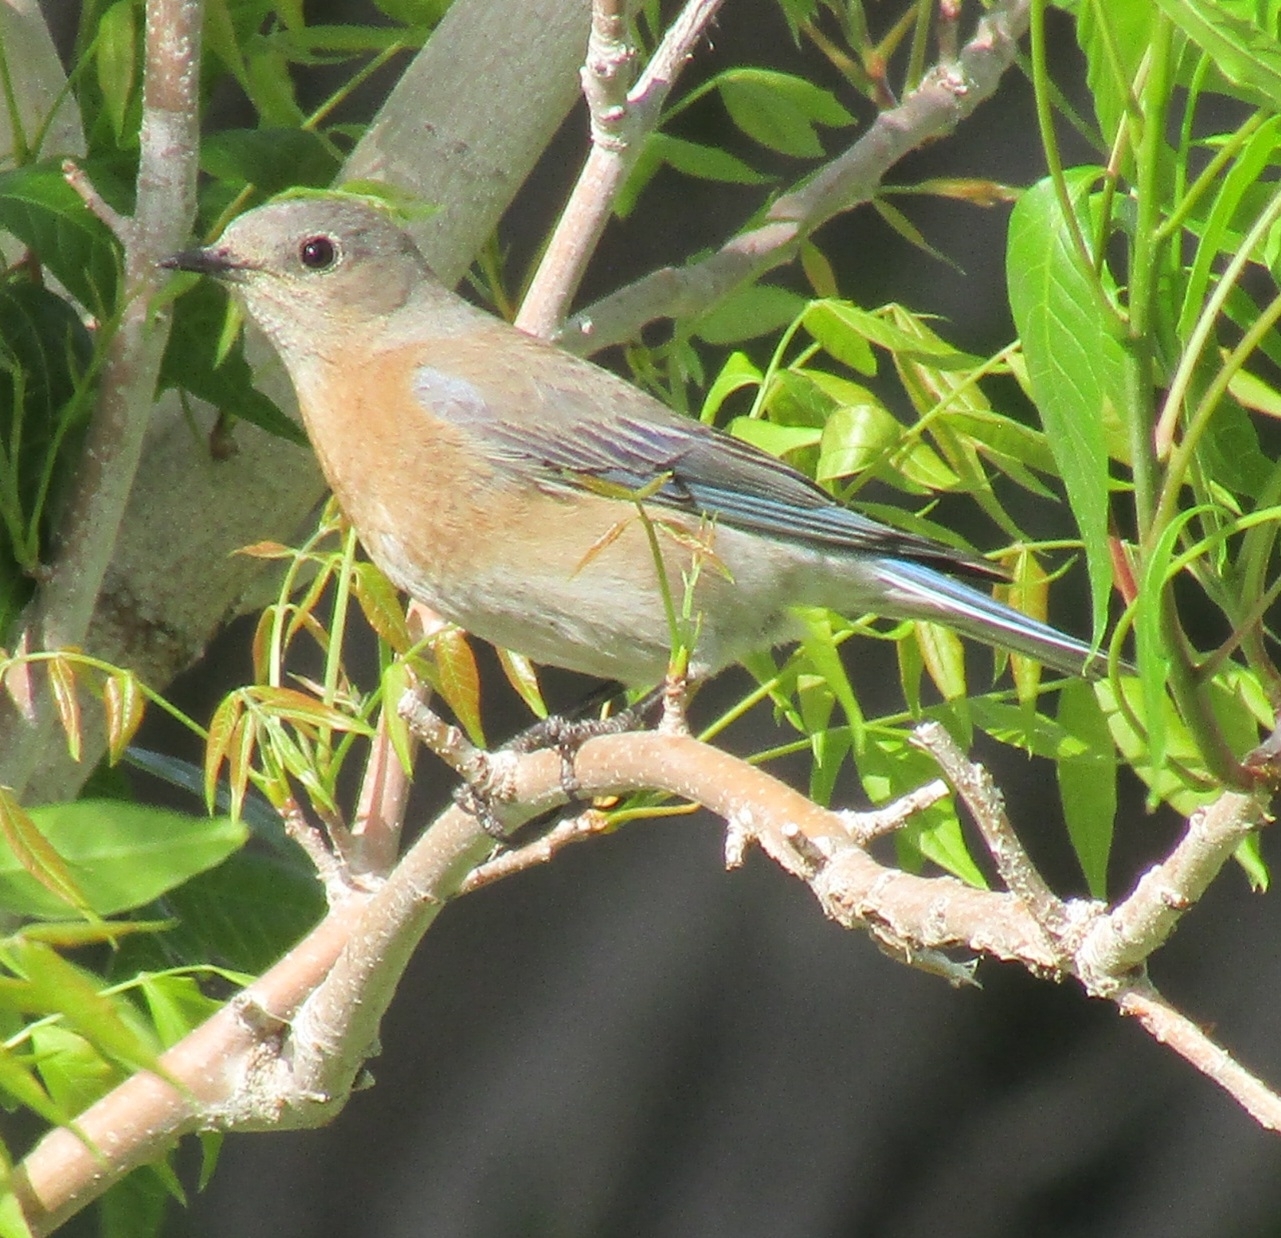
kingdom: Animalia
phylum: Chordata
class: Aves
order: Passeriformes
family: Turdidae
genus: Sialia
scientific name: Sialia mexicana
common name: Western bluebird
